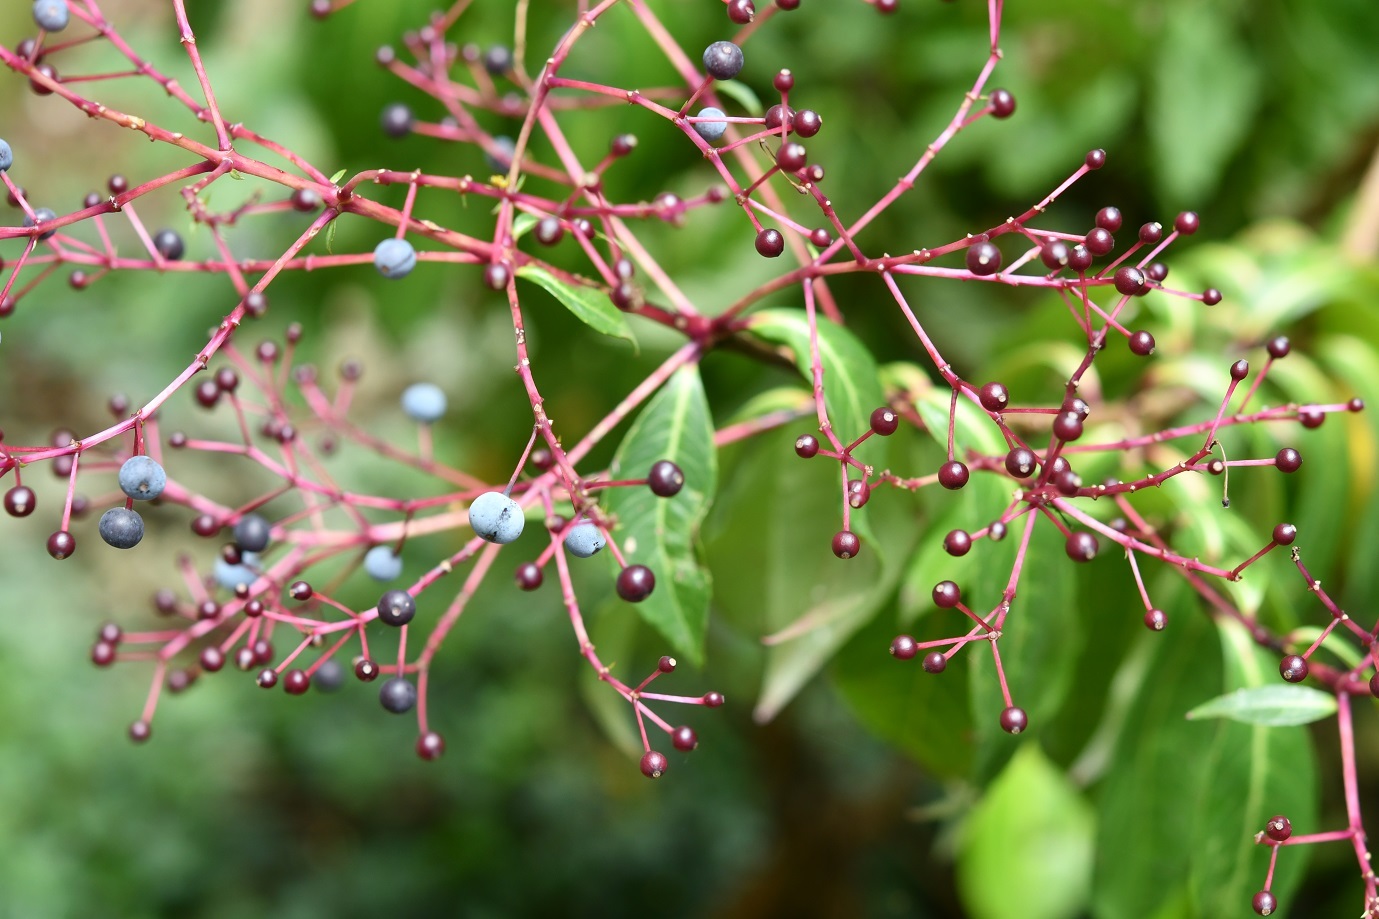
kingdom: Plantae
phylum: Tracheophyta
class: Magnoliopsida
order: Myrtales
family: Onagraceae
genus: Fuchsia
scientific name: Fuchsia paniculata
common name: Shrubby fuchsia
